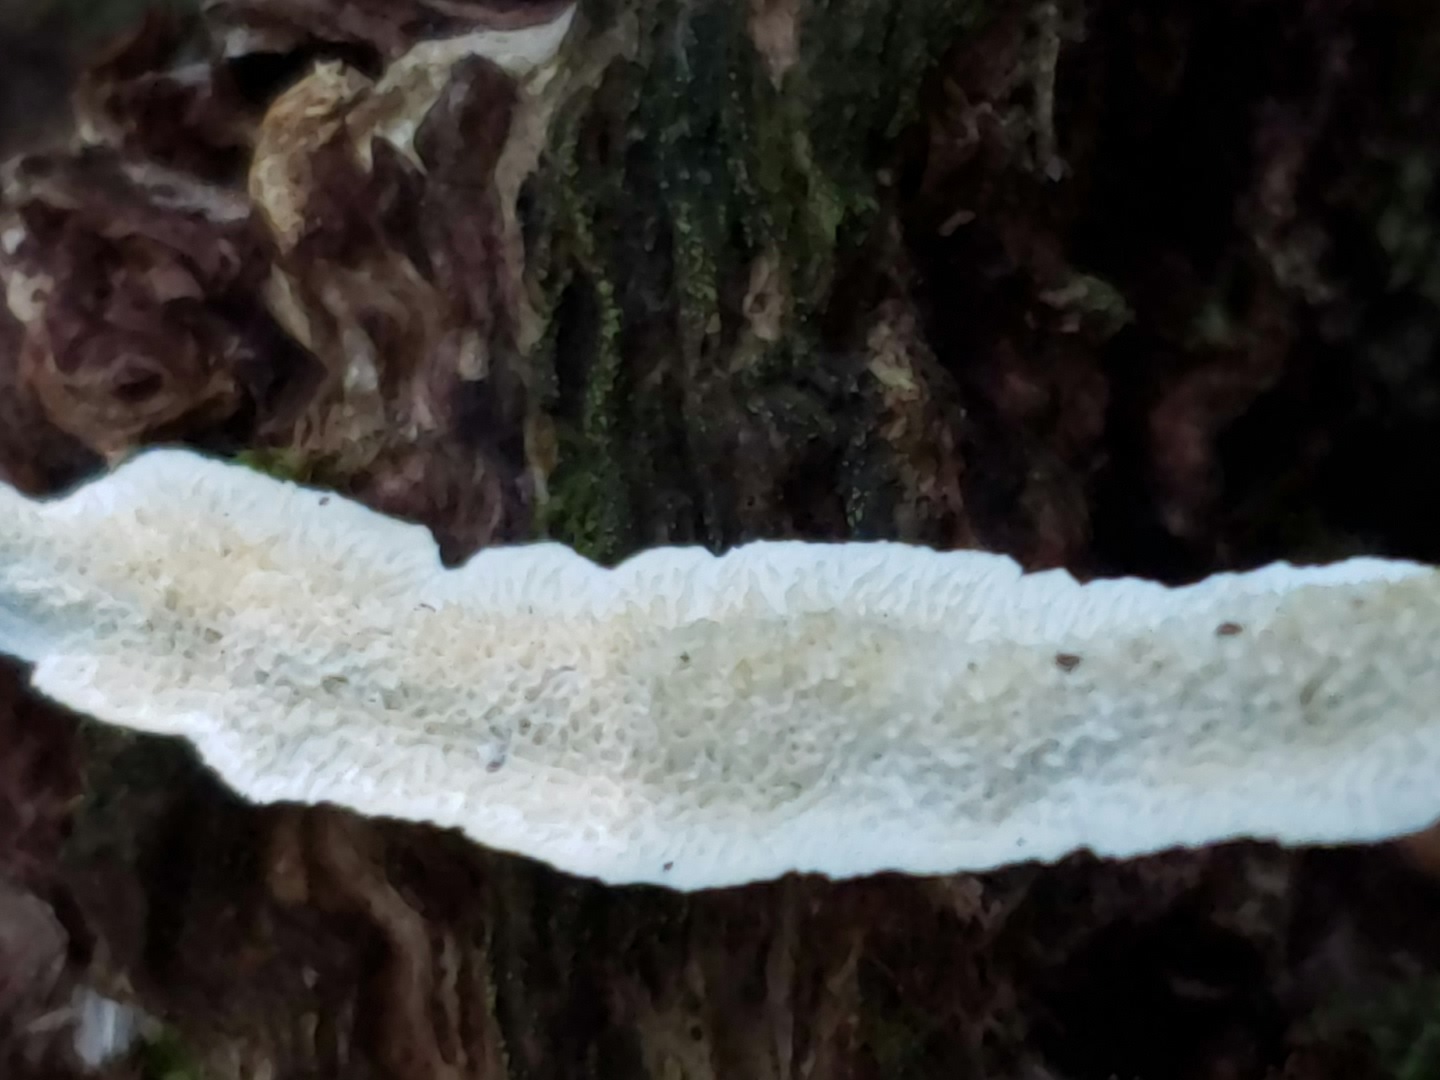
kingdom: Fungi
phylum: Basidiomycota
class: Agaricomycetes
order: Polyporales
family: Irpicaceae
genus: Irpex
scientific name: Irpex lacteus
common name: Milk-white toothed polypore
